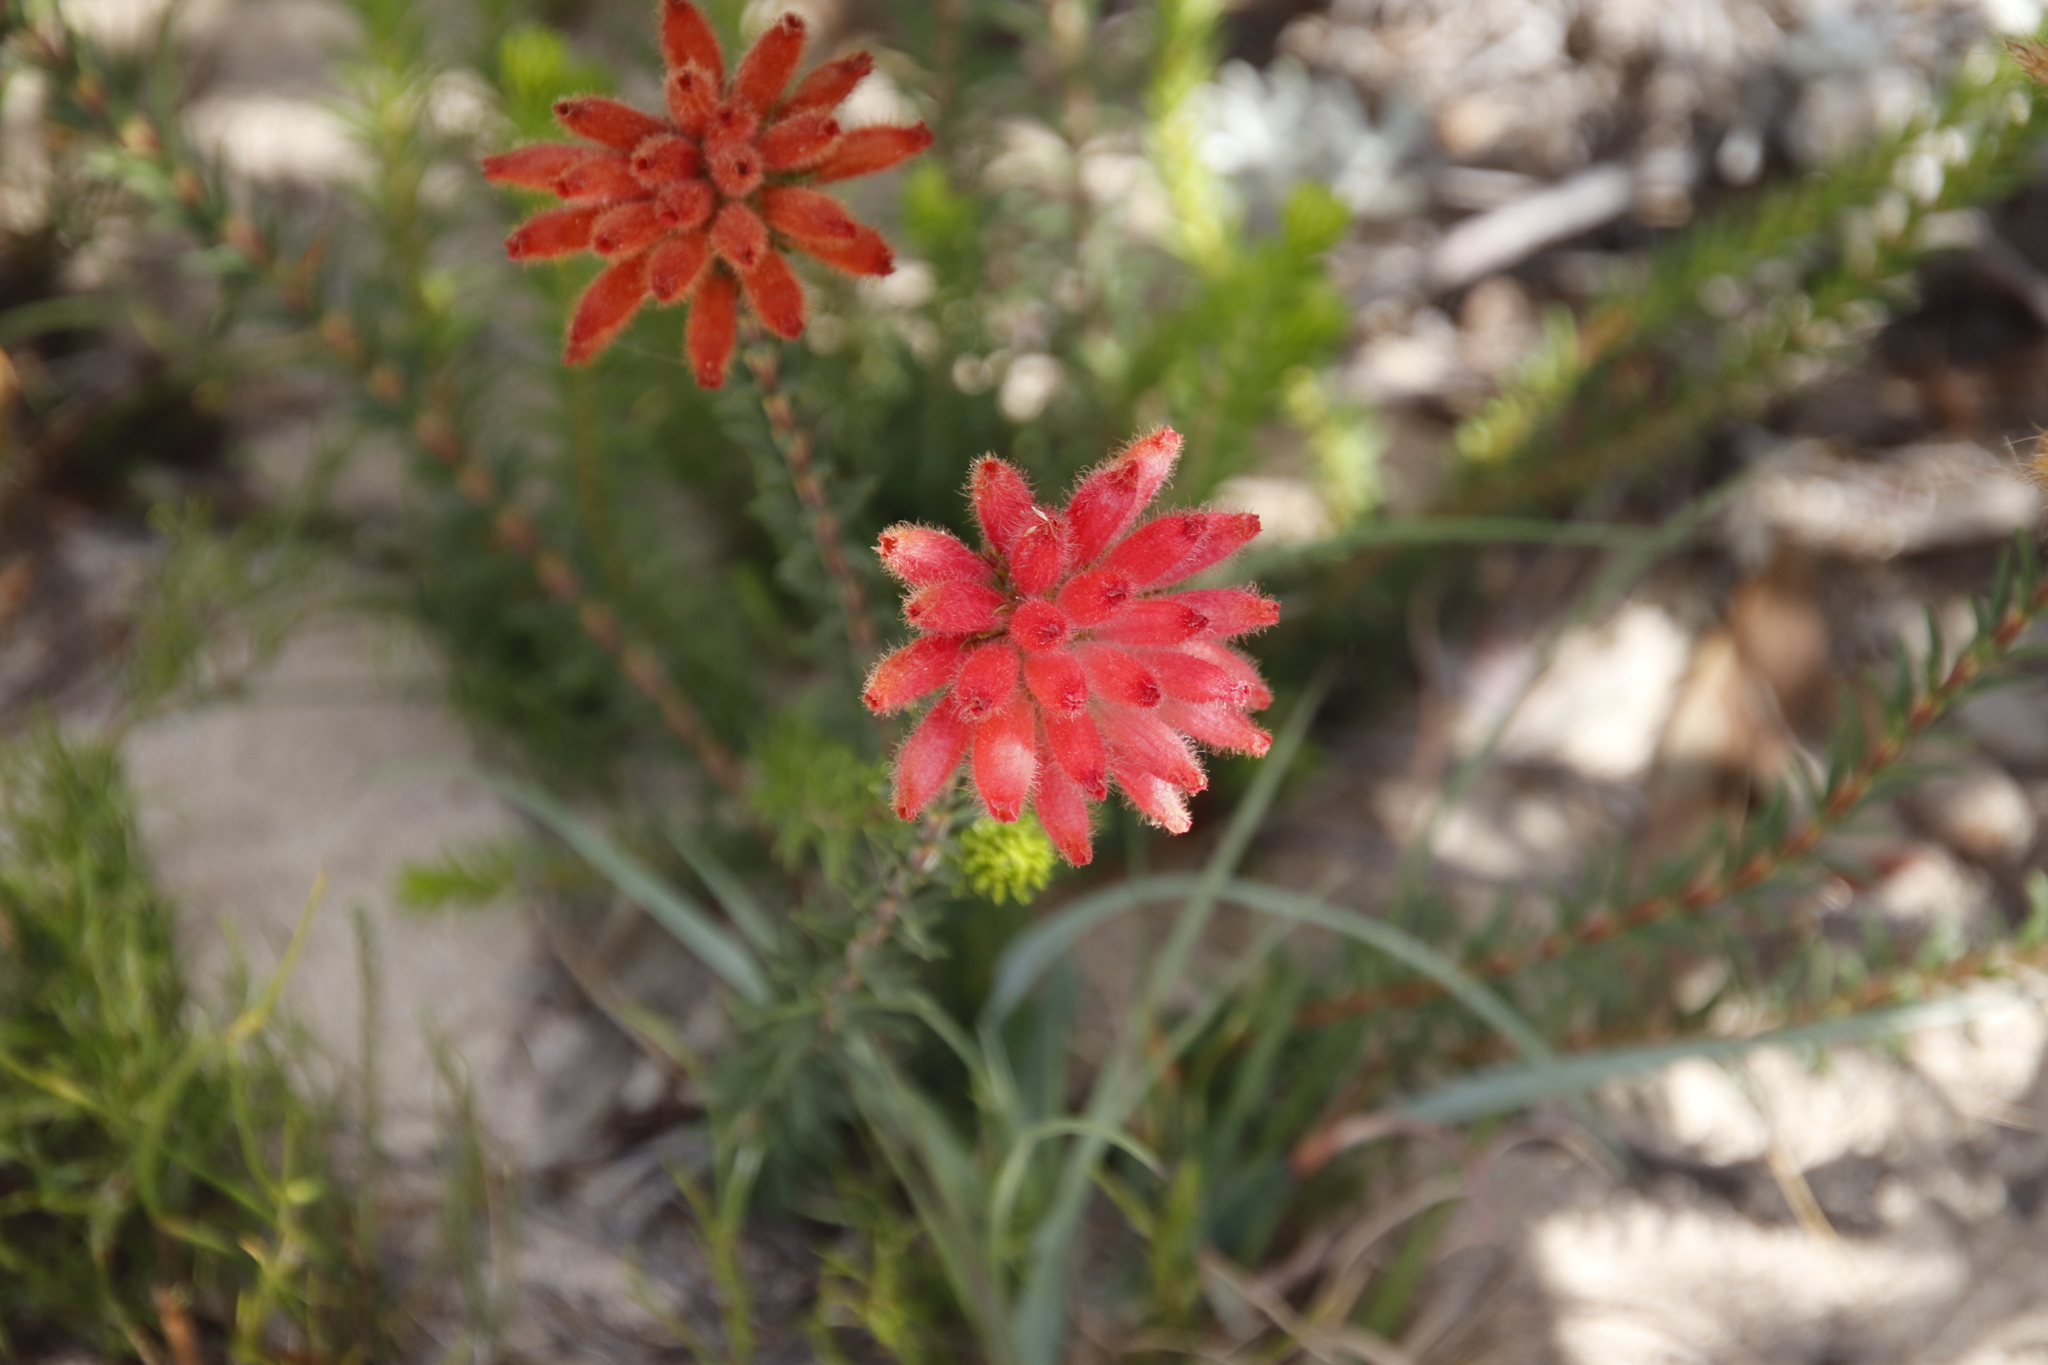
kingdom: Plantae
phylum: Tracheophyta
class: Magnoliopsida
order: Ericales
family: Ericaceae
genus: Erica
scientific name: Erica cerinthoides
